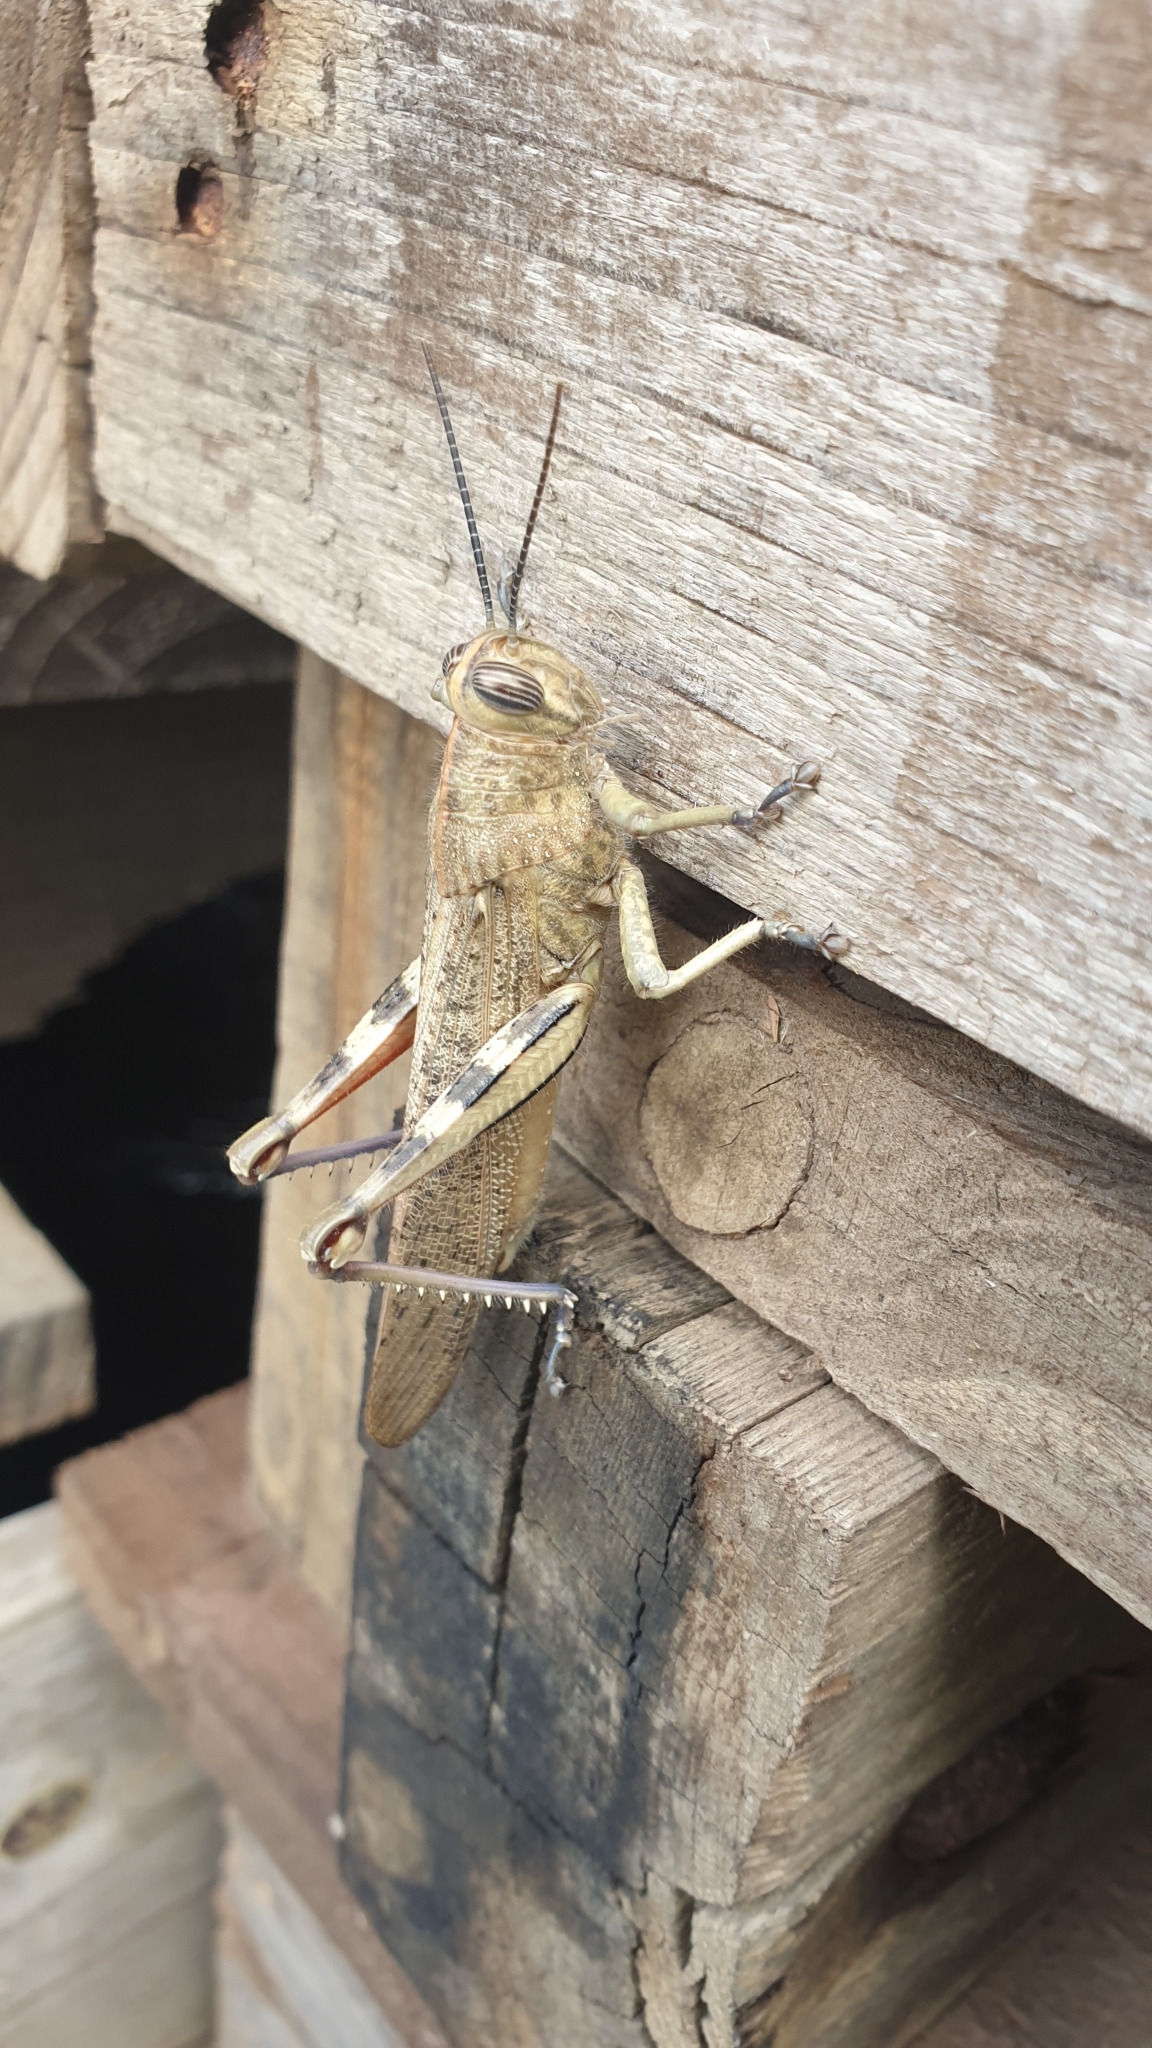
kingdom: Animalia
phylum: Arthropoda
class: Insecta
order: Orthoptera
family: Acrididae
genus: Anacridium
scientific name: Anacridium aegyptium
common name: Egyptian grasshopper
